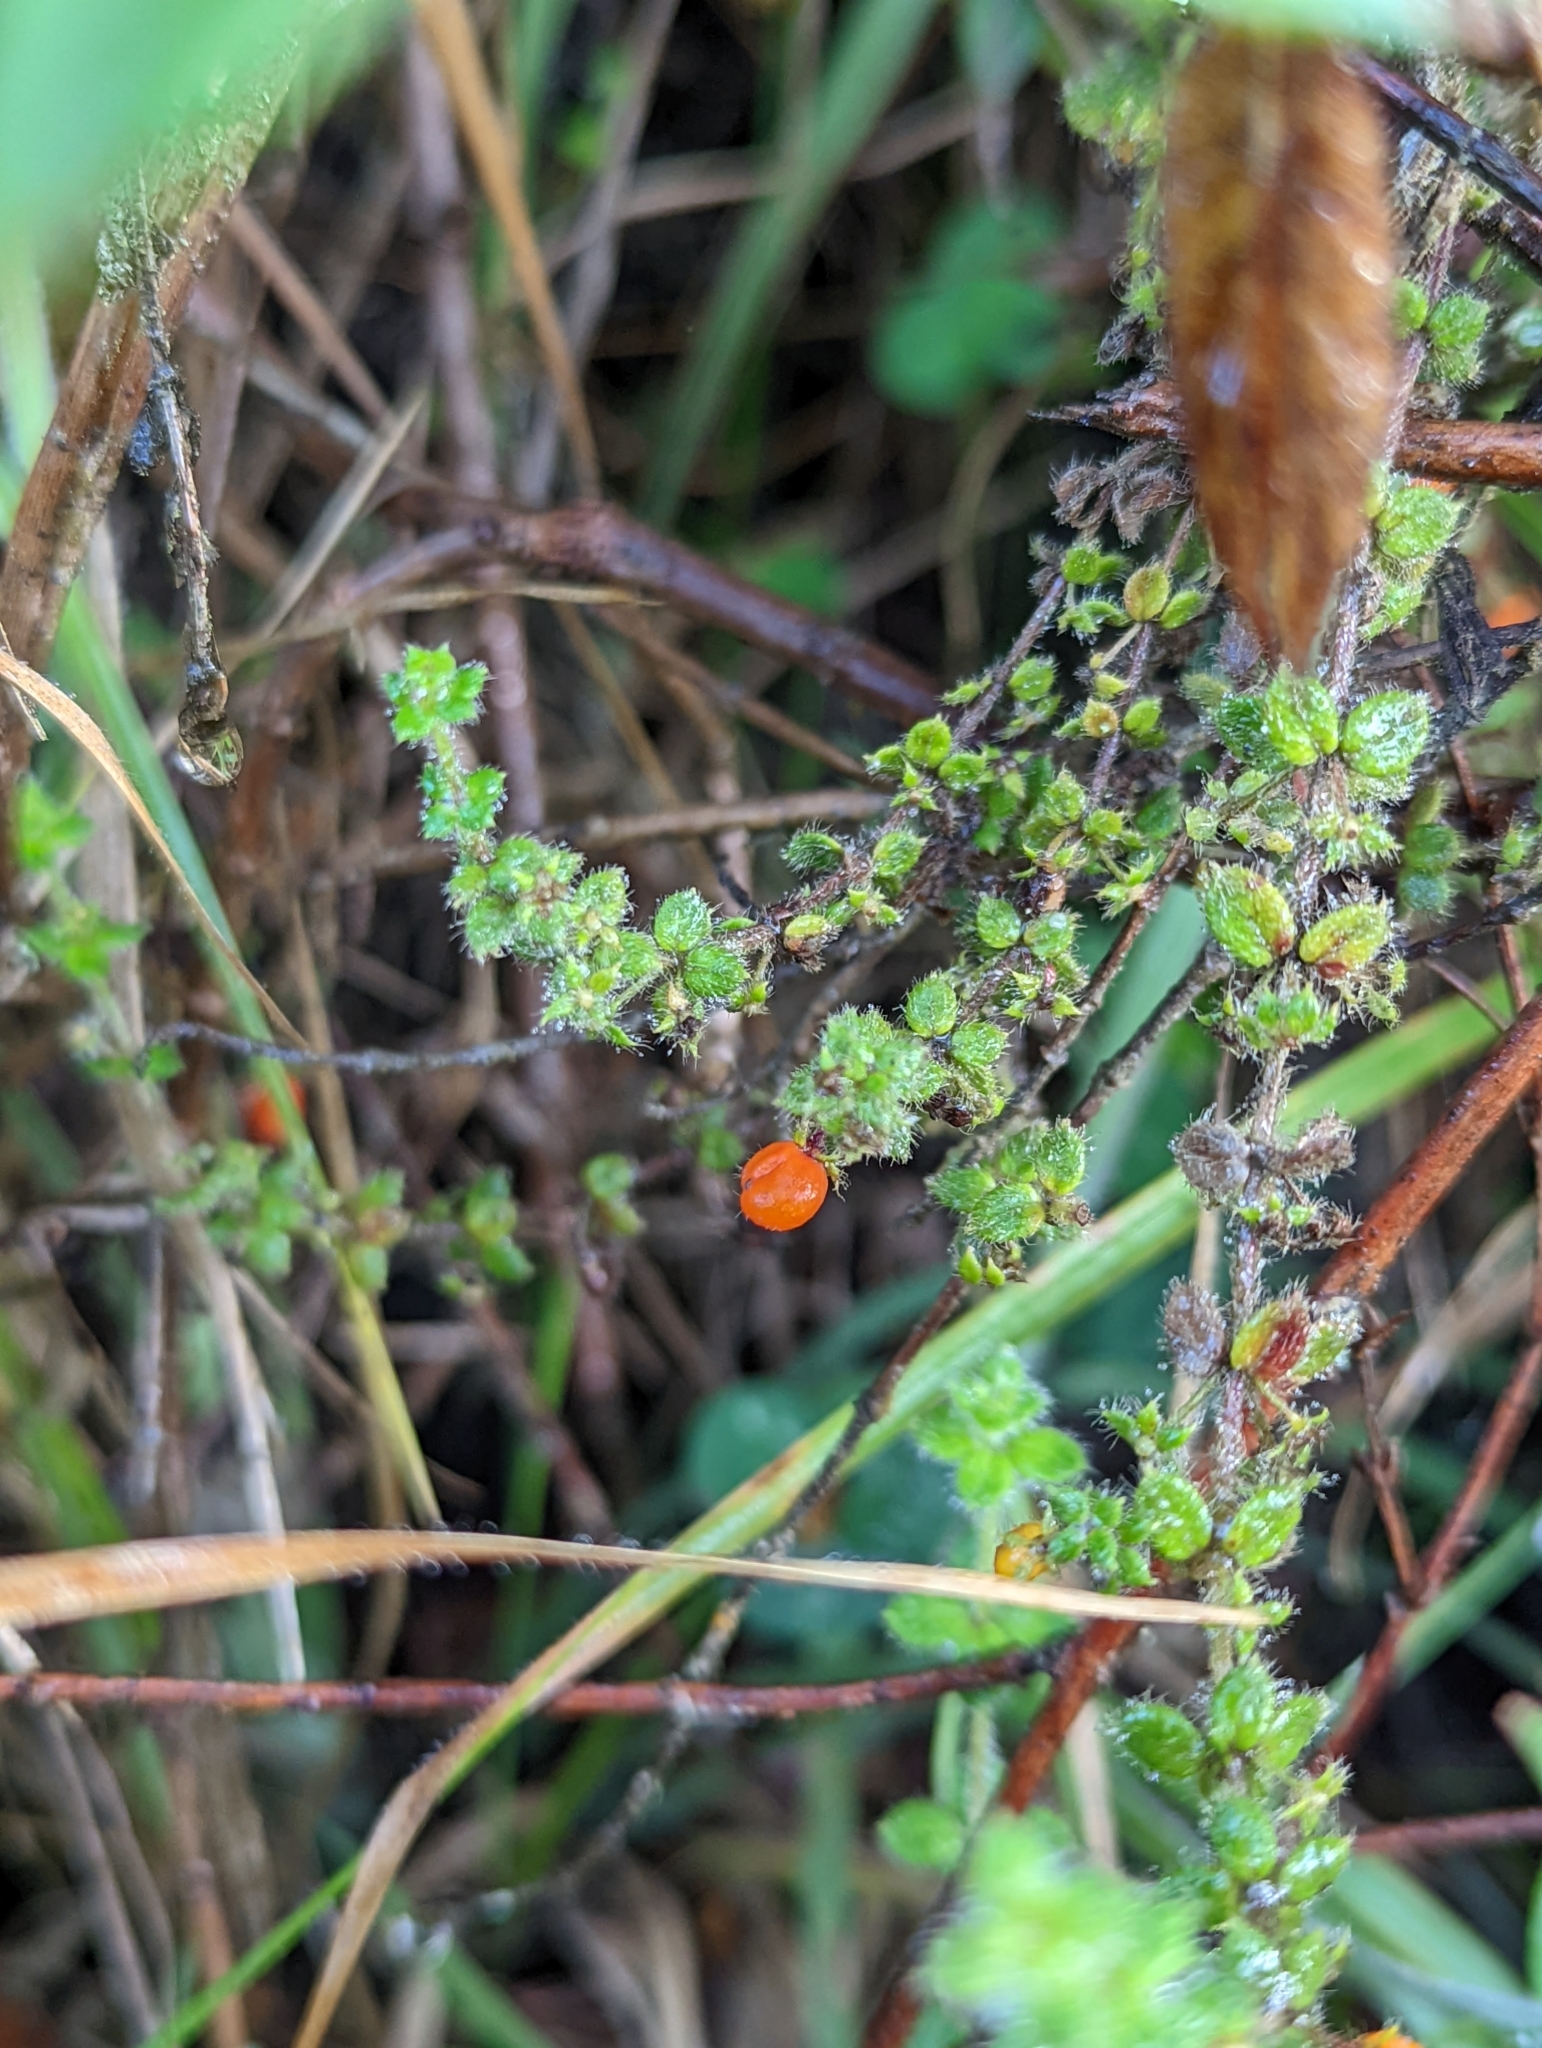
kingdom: Plantae
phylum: Tracheophyta
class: Magnoliopsida
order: Gentianales
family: Rubiaceae
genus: Galium
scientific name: Galium hypocarpium
